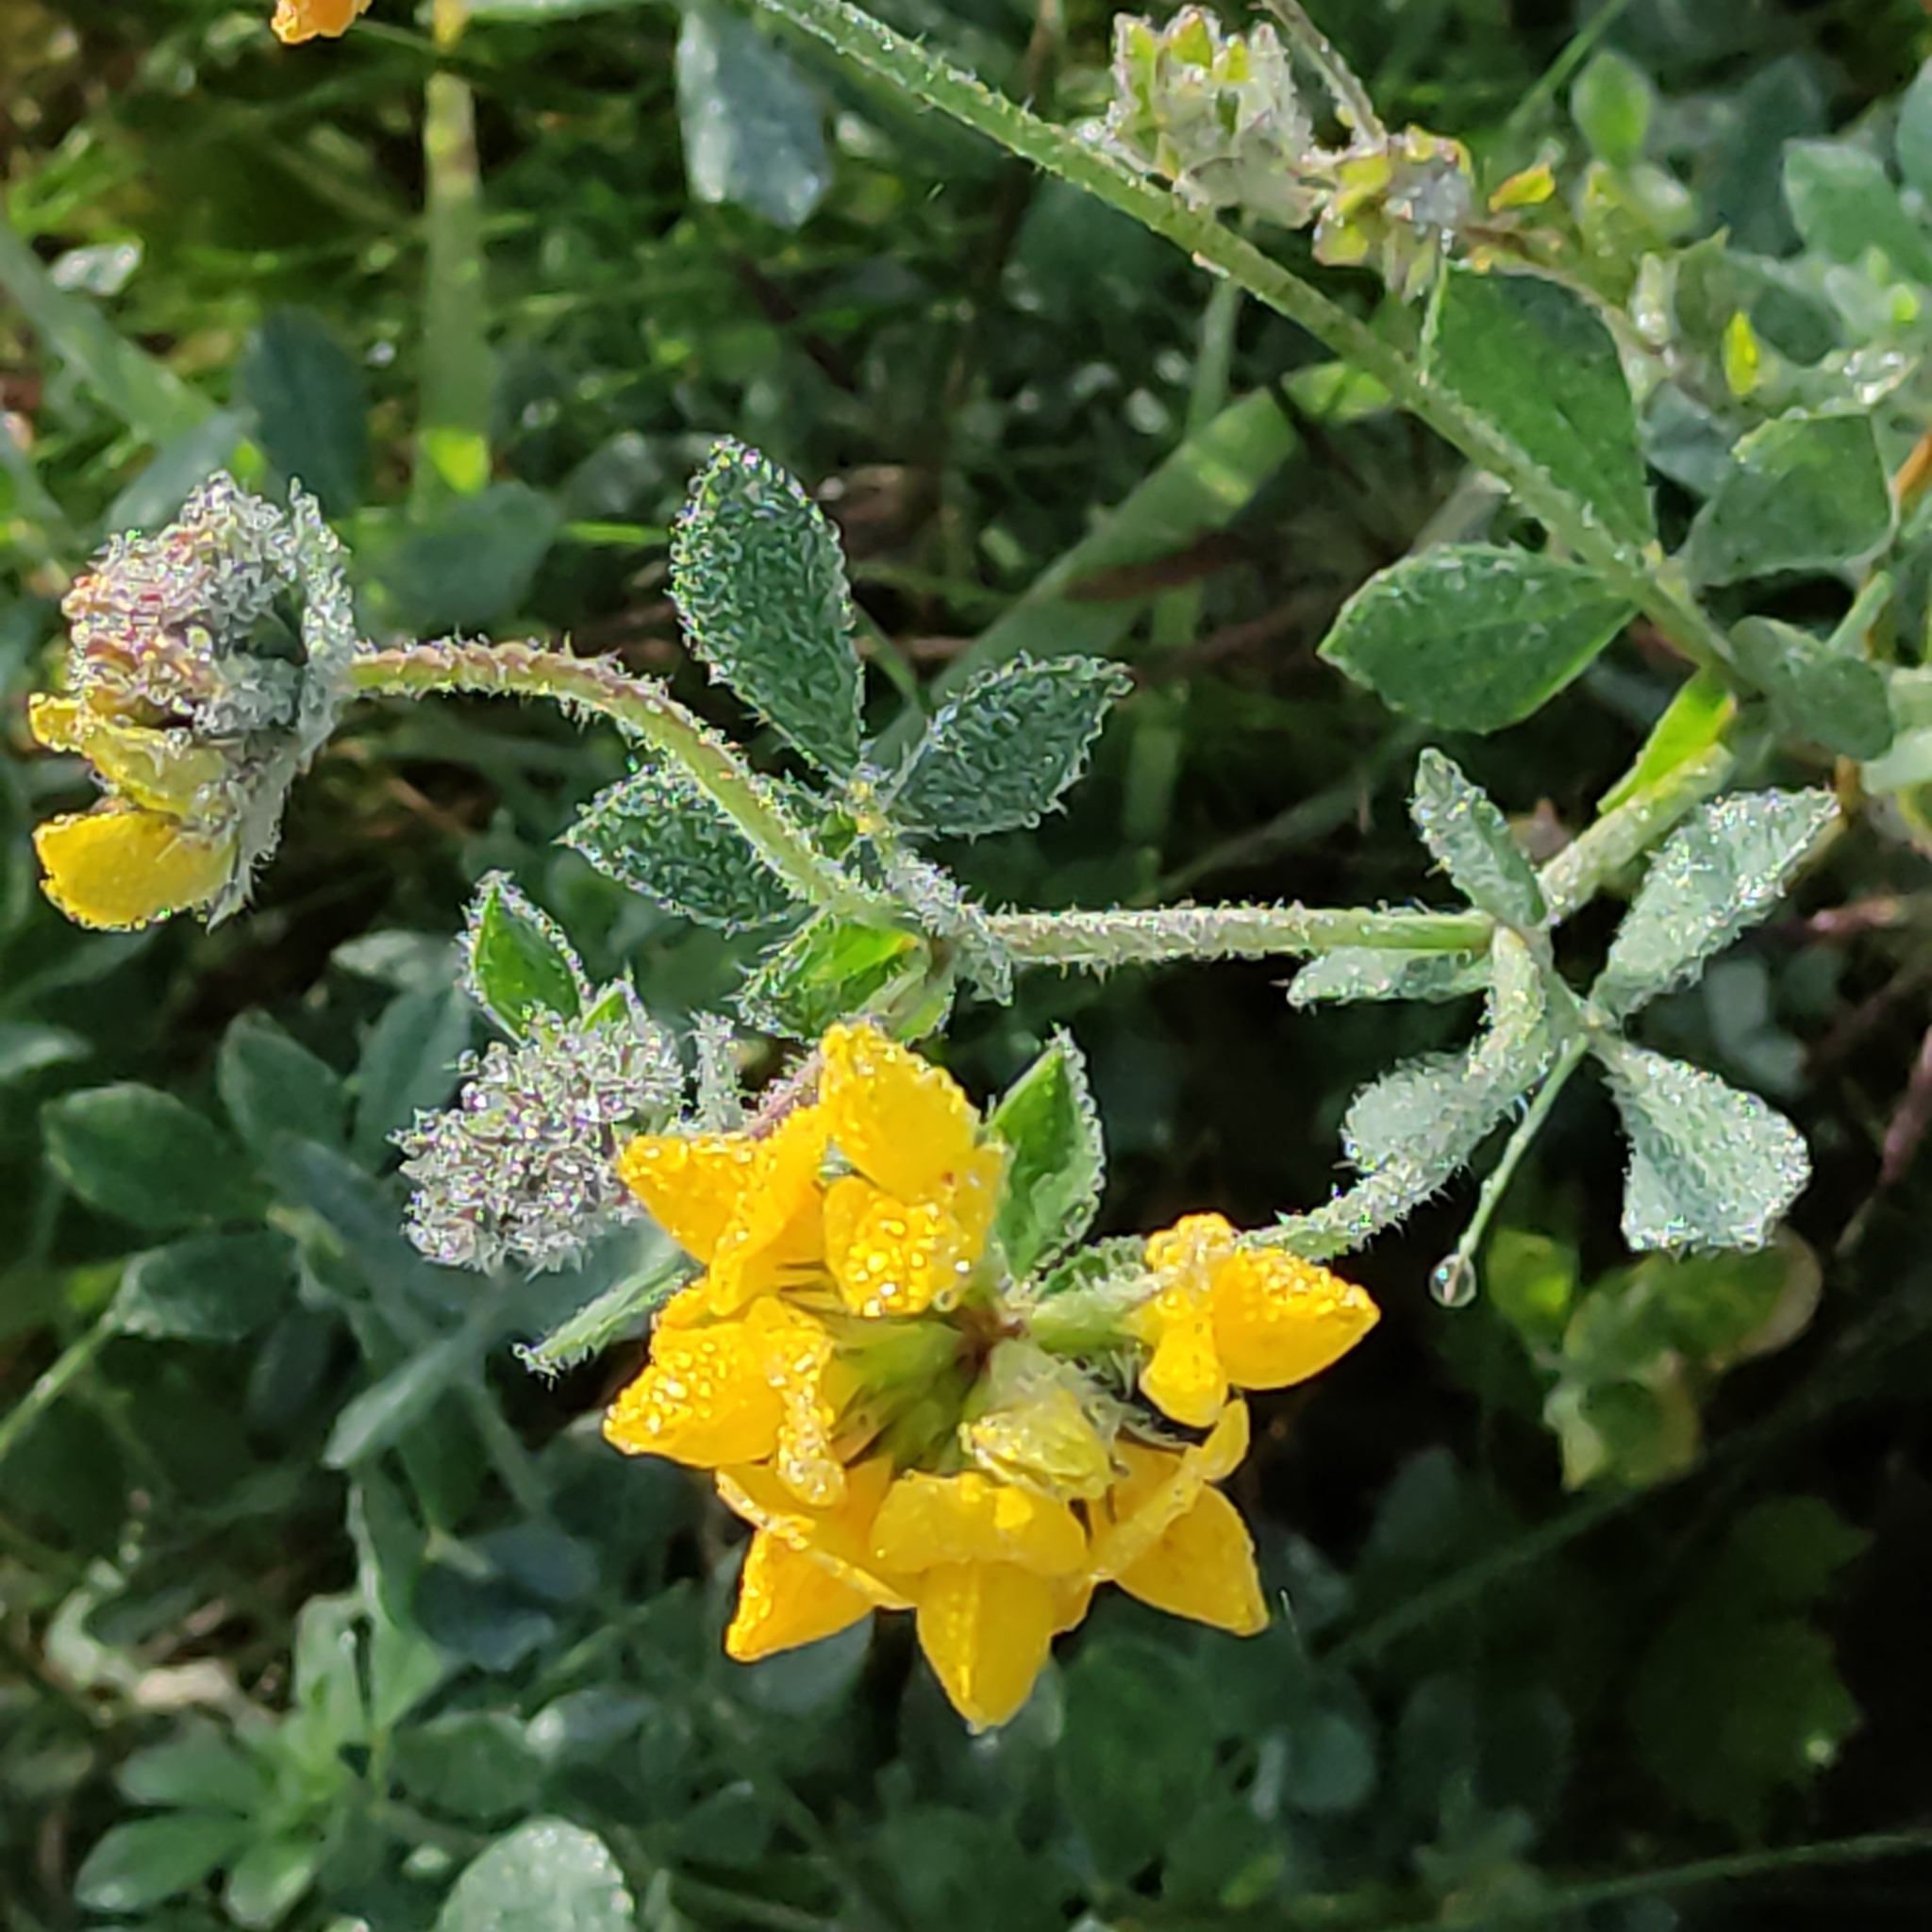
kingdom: Plantae
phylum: Tracheophyta
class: Magnoliopsida
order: Fabales
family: Fabaceae
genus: Lotus
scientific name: Lotus pedunculatus
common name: Greater birdsfoot-trefoil
